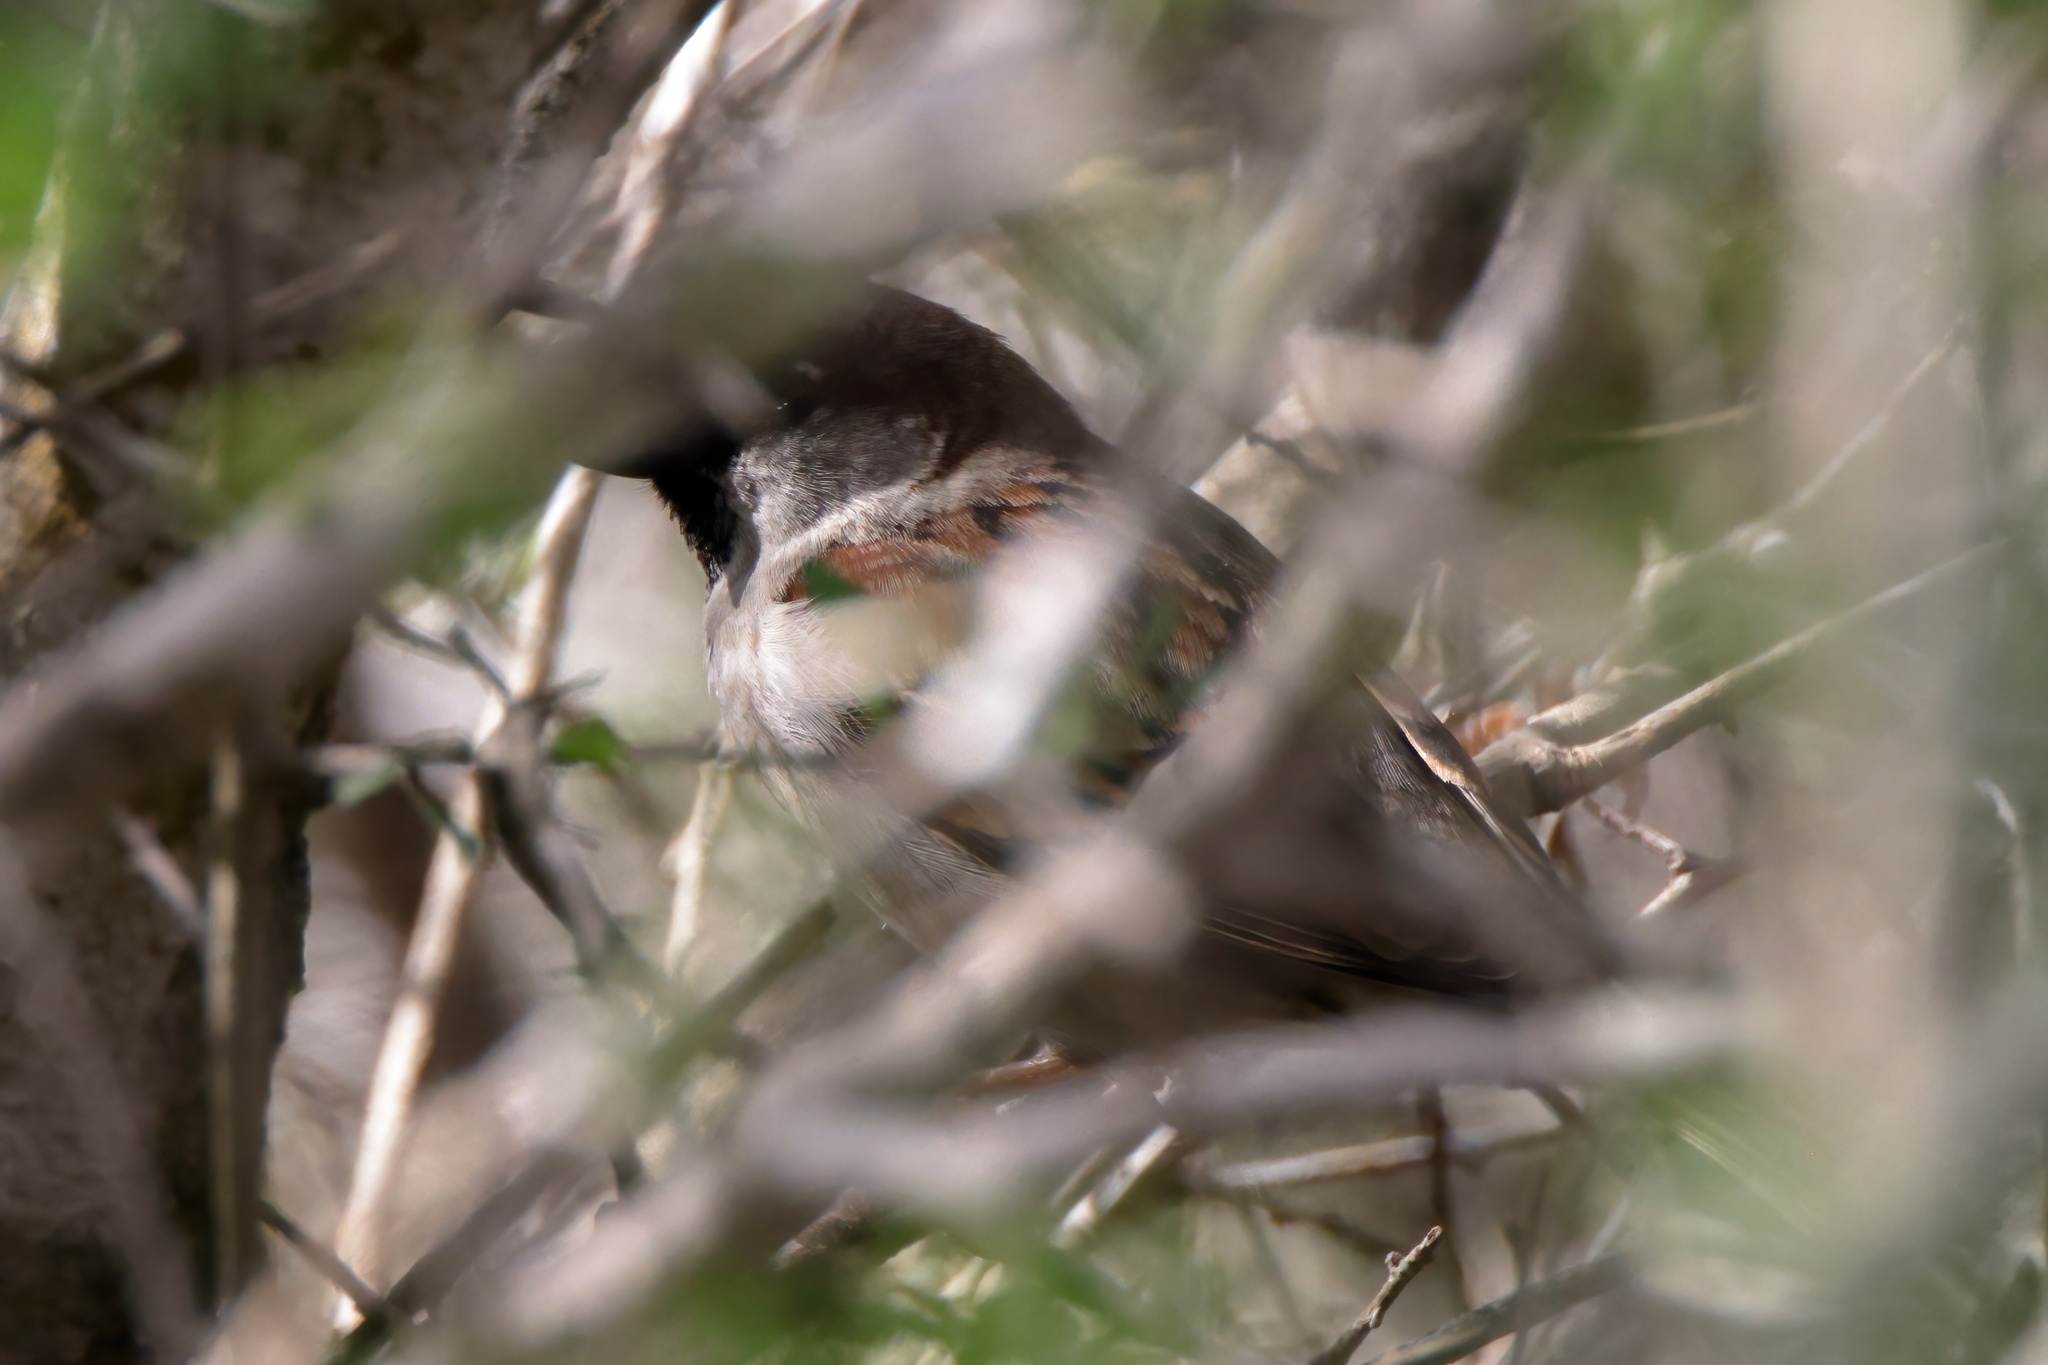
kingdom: Animalia
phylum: Chordata
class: Aves
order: Passeriformes
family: Passeridae
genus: Passer
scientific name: Passer domesticus
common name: House sparrow
